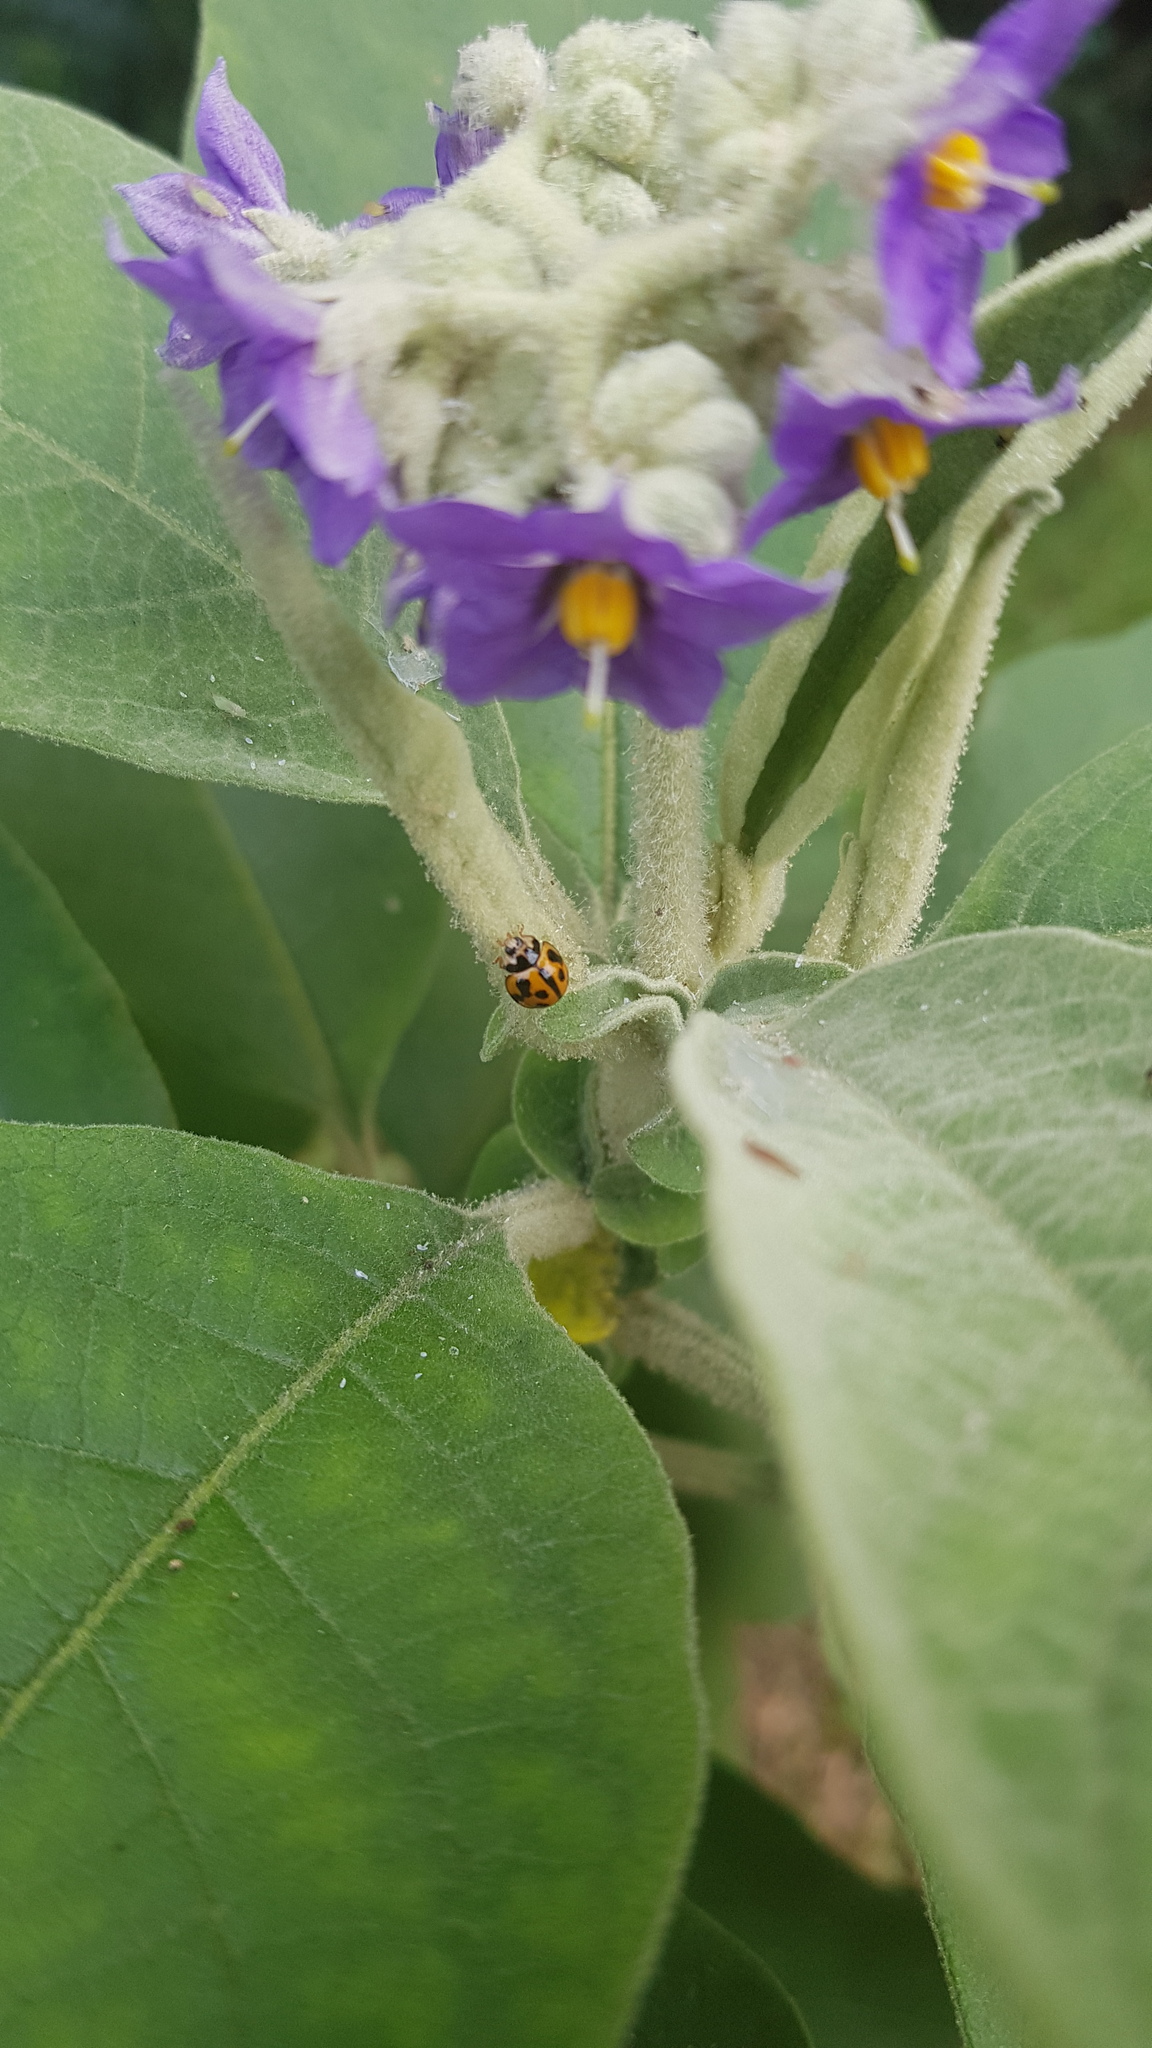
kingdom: Animalia
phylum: Arthropoda
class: Insecta
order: Coleoptera
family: Coccinellidae
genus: Coelophora
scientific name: Coelophora inaequalis
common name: Common australian lady beetle
